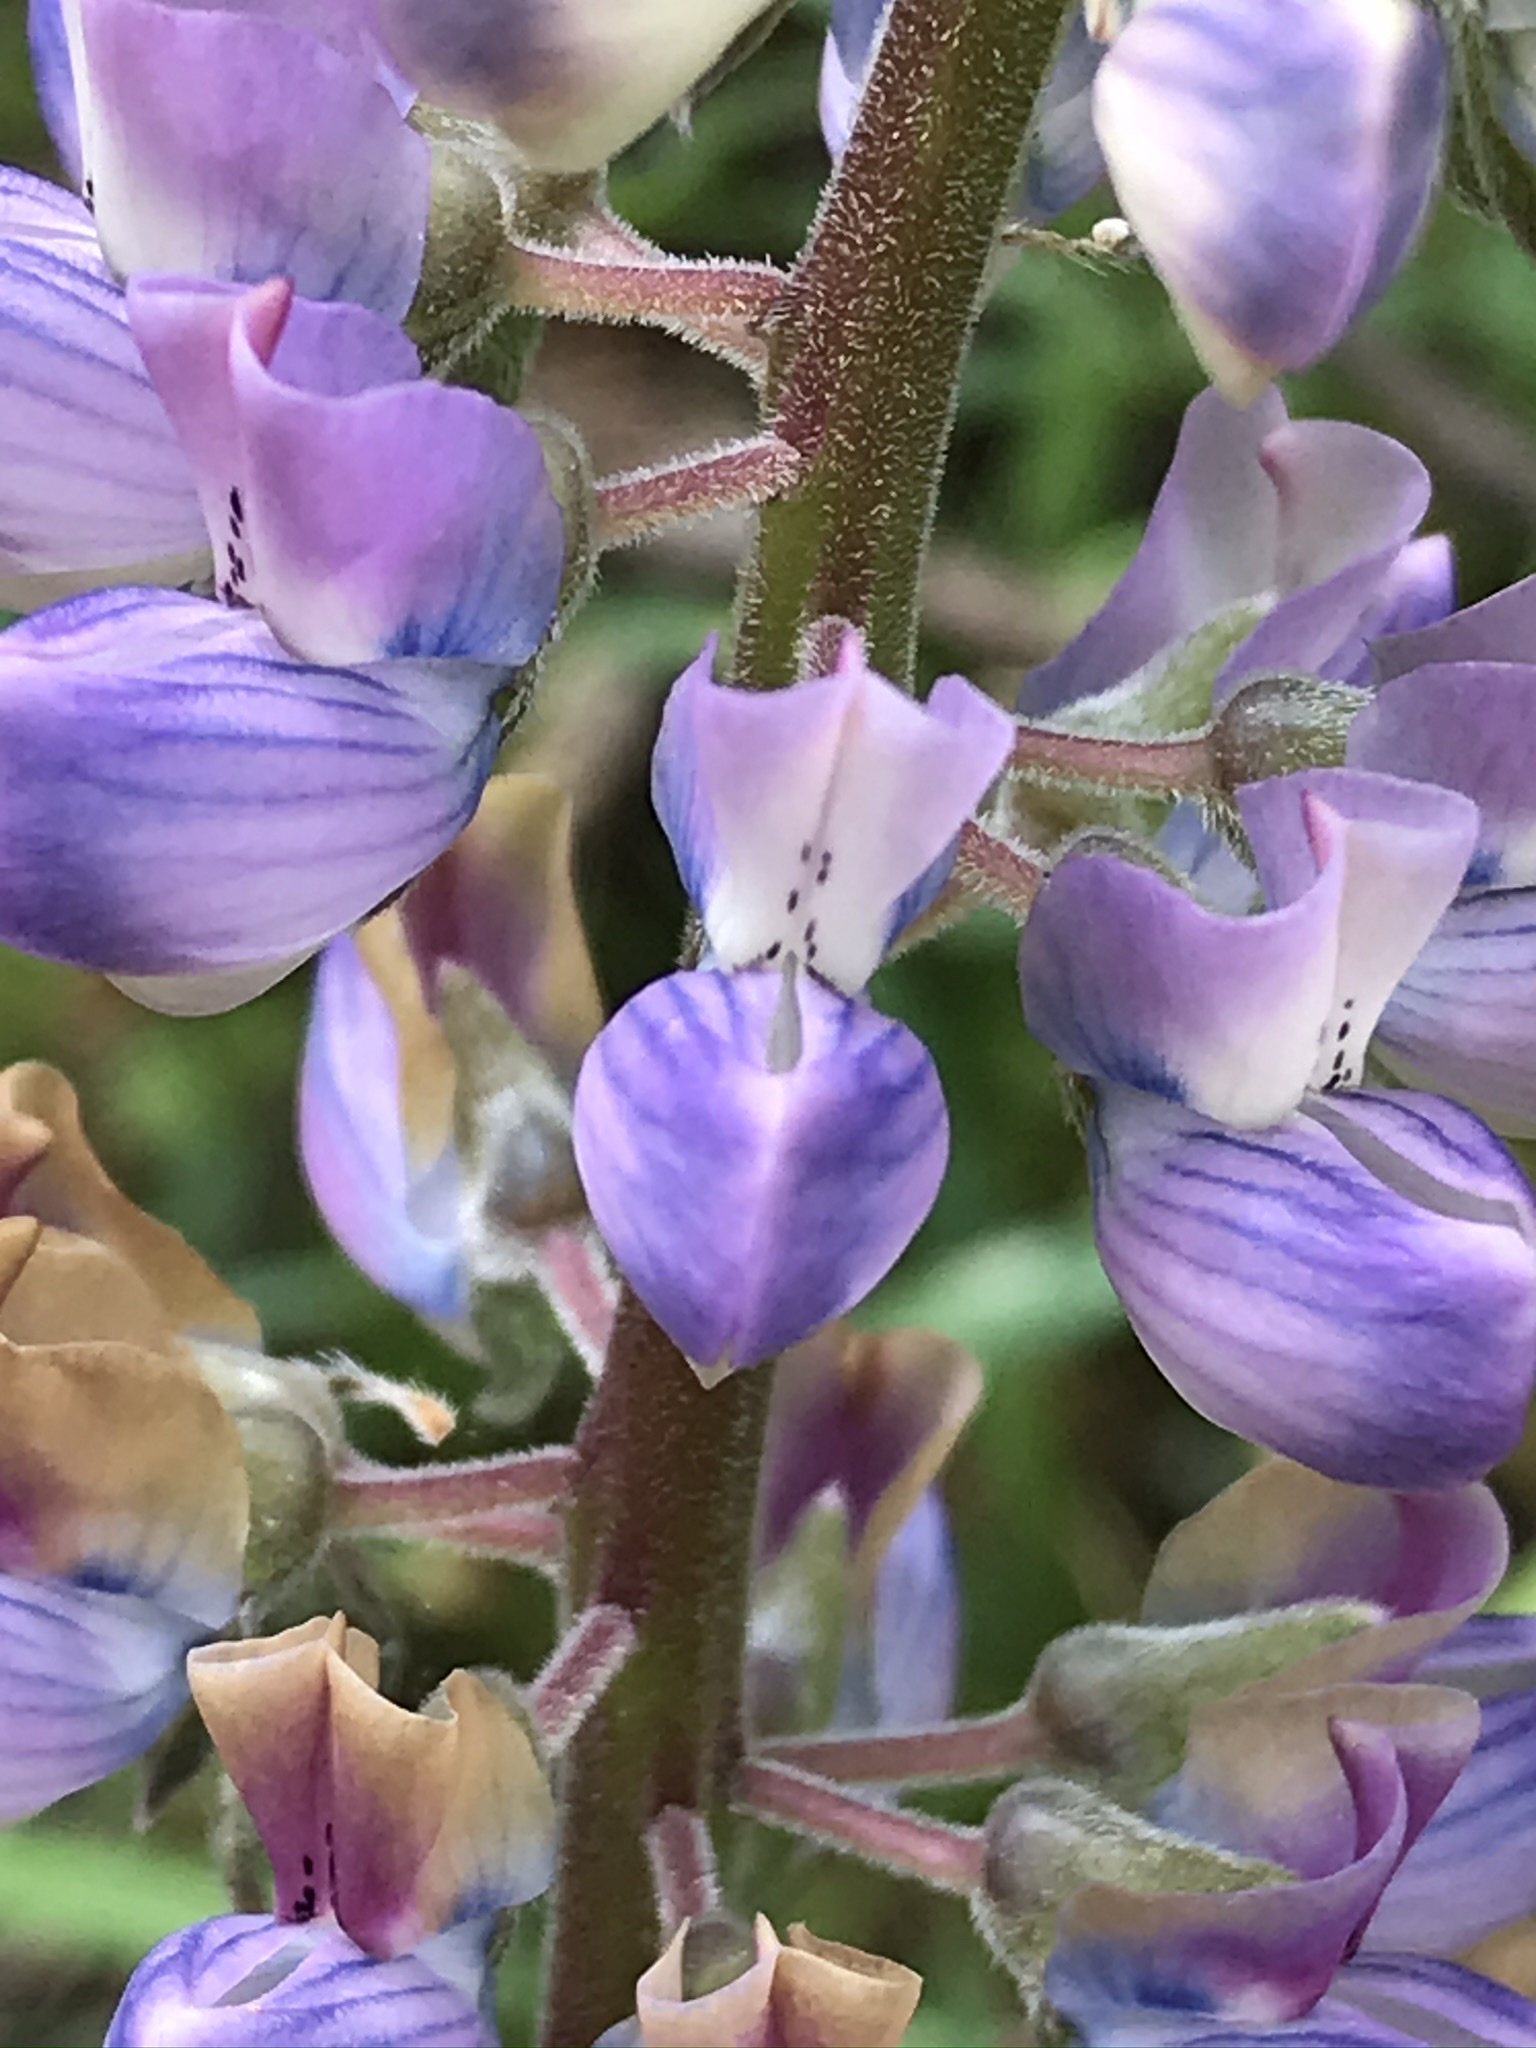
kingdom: Plantae
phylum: Tracheophyta
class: Magnoliopsida
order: Fabales
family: Fabaceae
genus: Lupinus
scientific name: Lupinus latifolius
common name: Broad-leaved lupine
